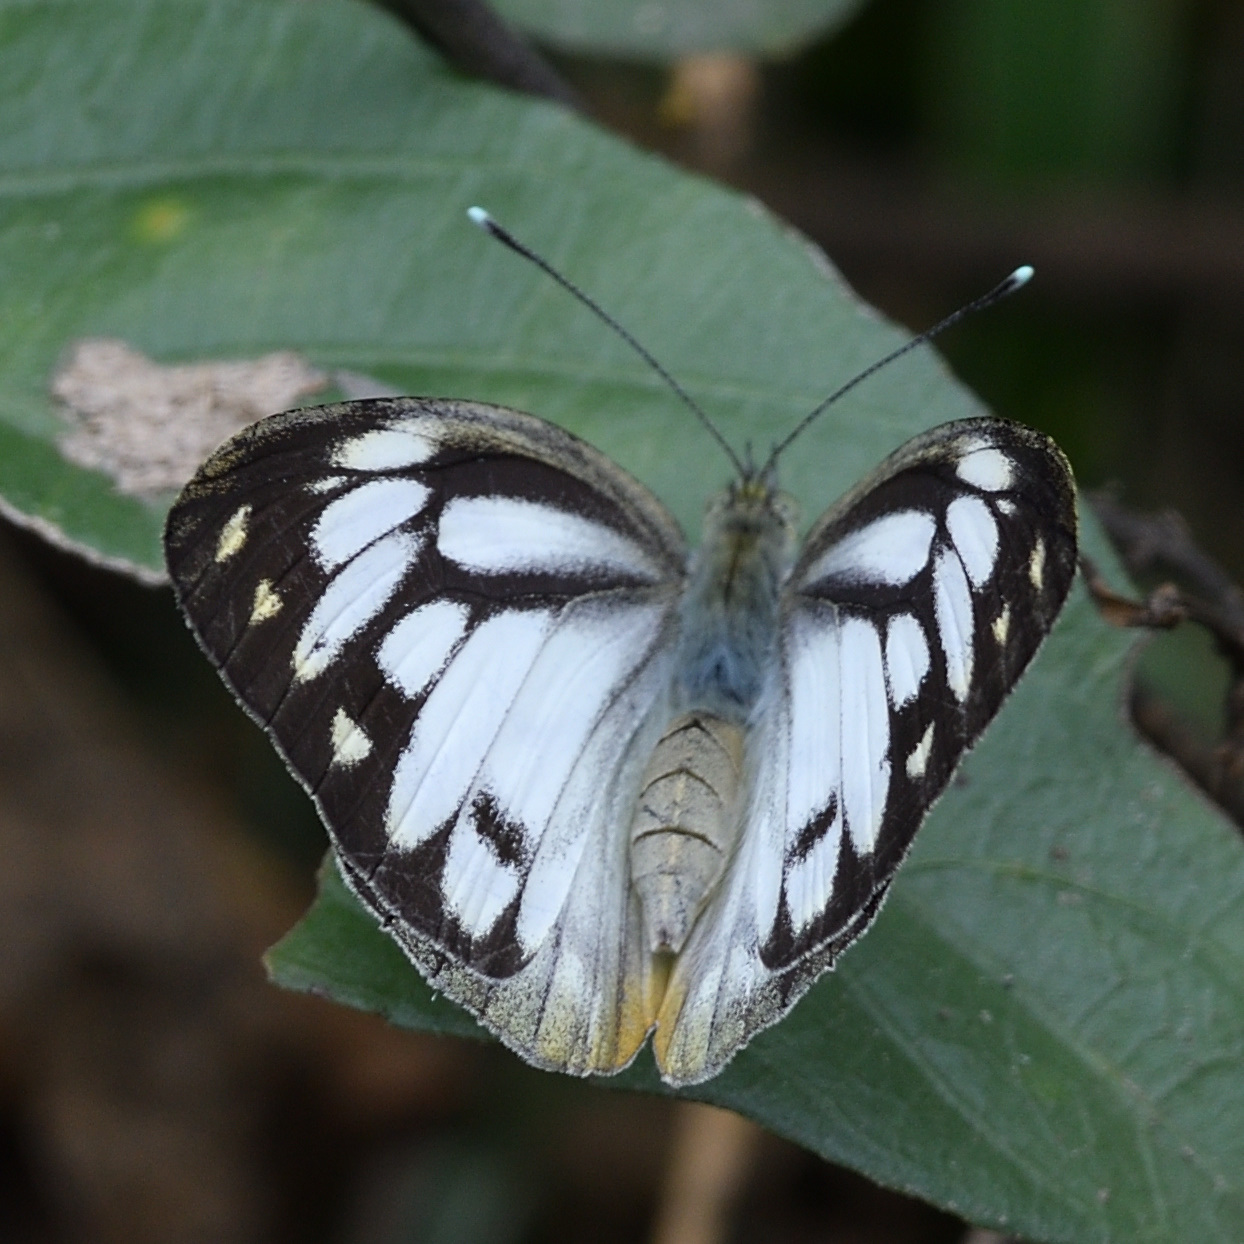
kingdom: Animalia
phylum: Arthropoda
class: Insecta
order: Lepidoptera
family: Pieridae
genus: Cepora
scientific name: Cepora nerissa
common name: Common gull
